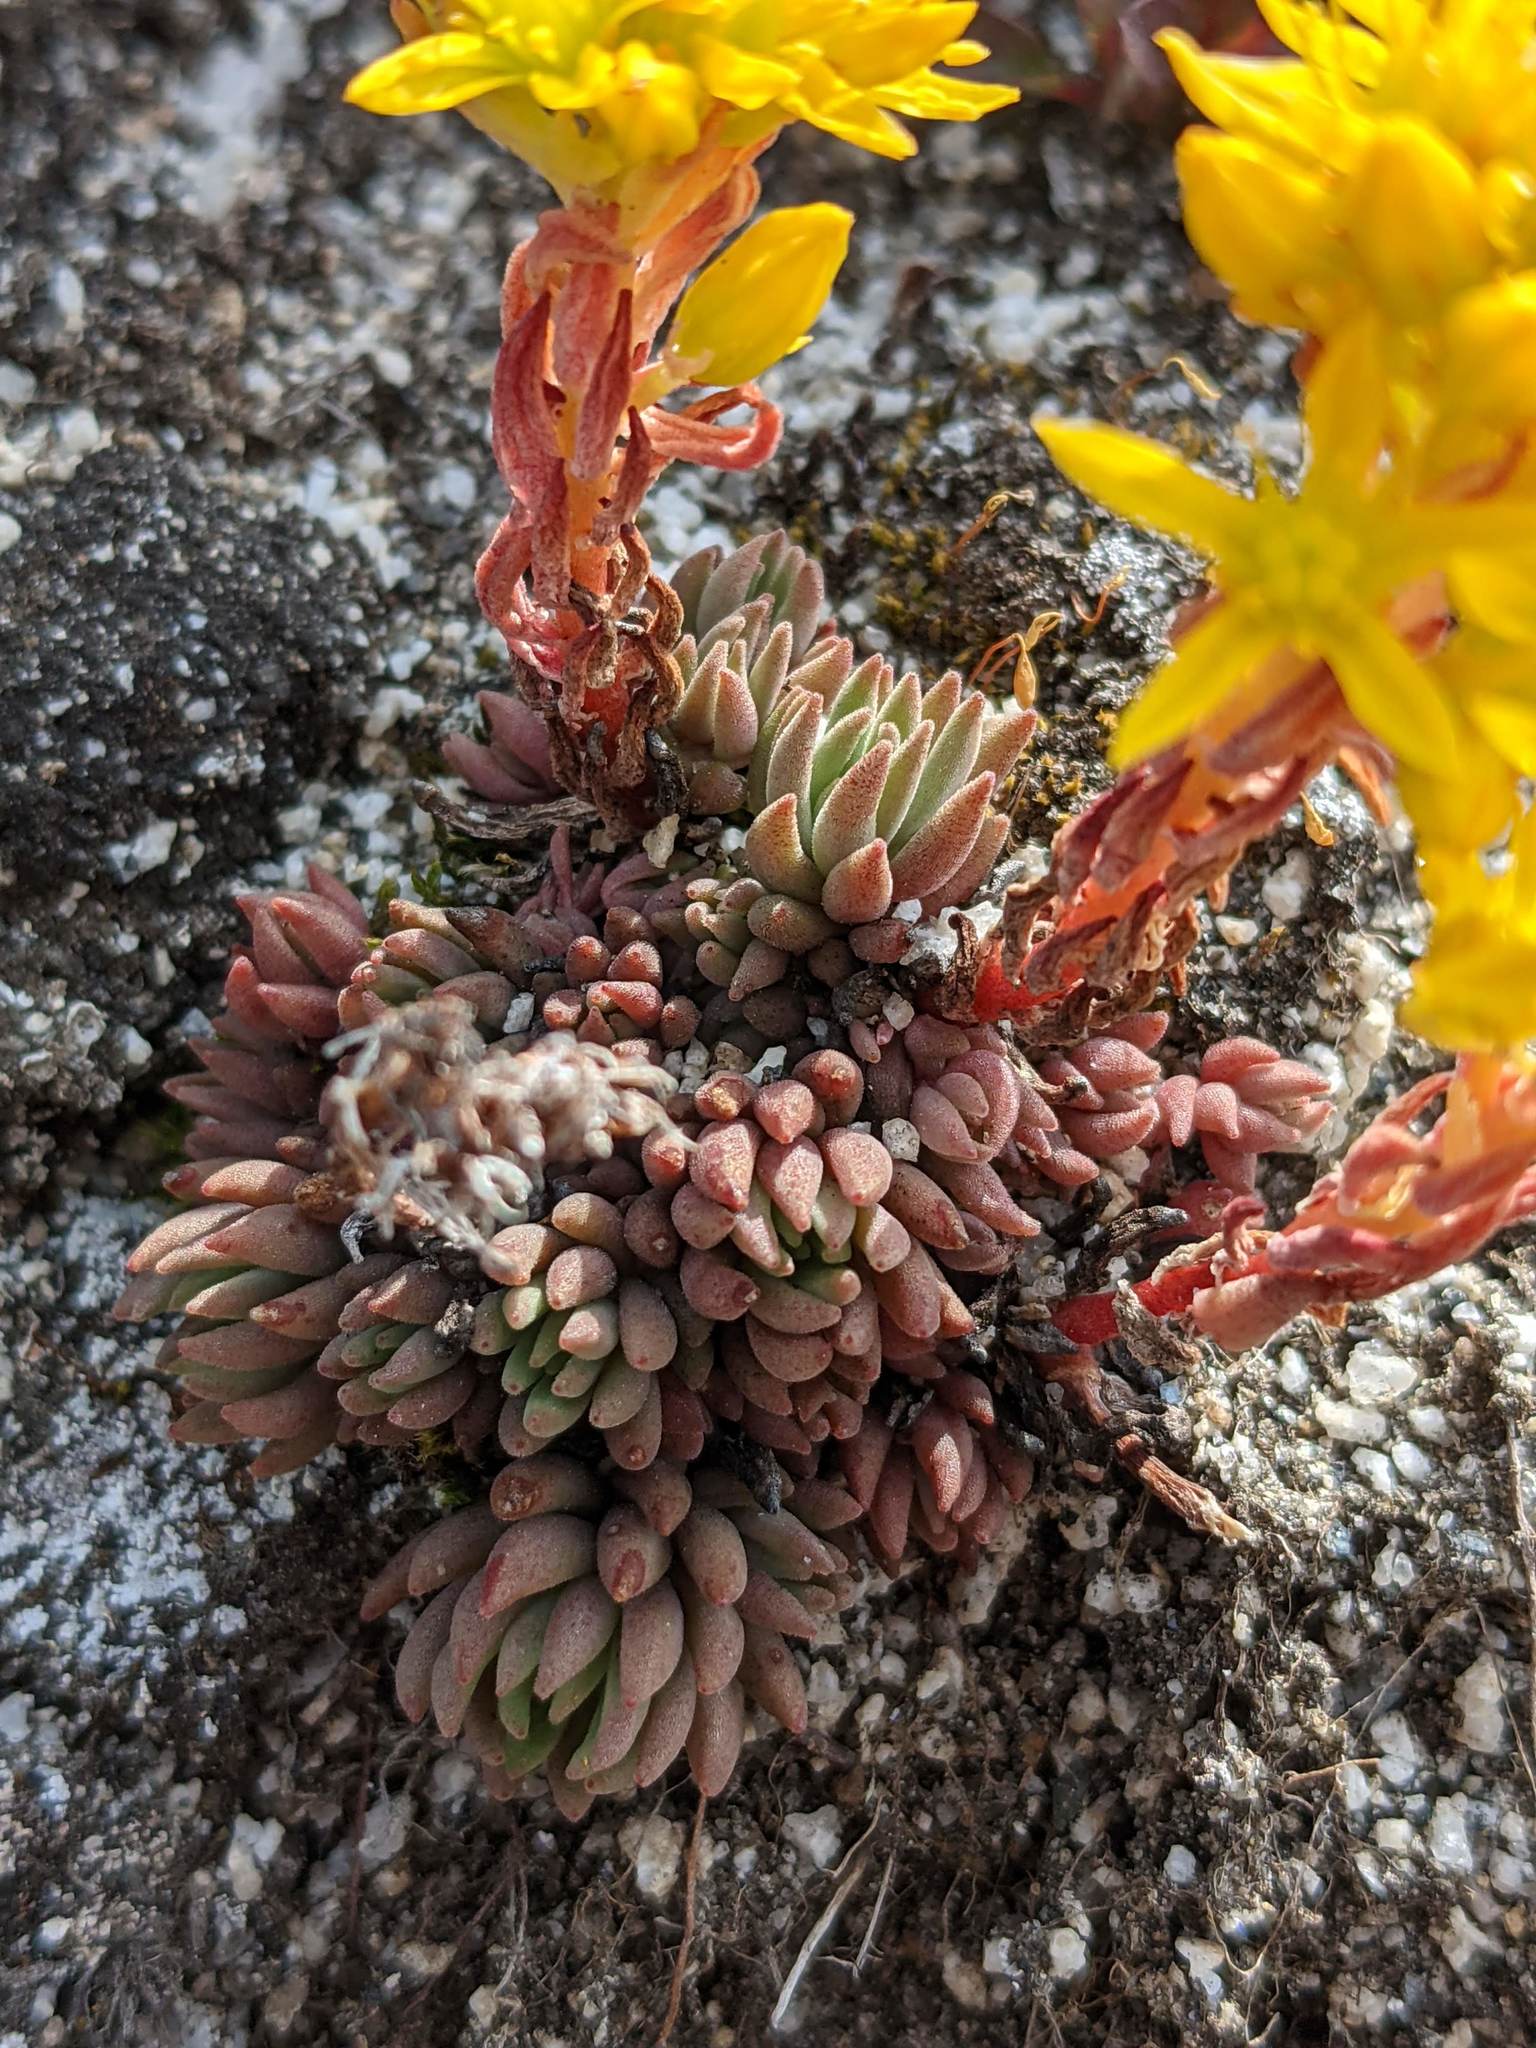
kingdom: Plantae
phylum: Tracheophyta
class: Magnoliopsida
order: Saxifragales
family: Crassulaceae
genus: Sedum
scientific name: Sedum lanceolatum
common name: Common stonecrop
